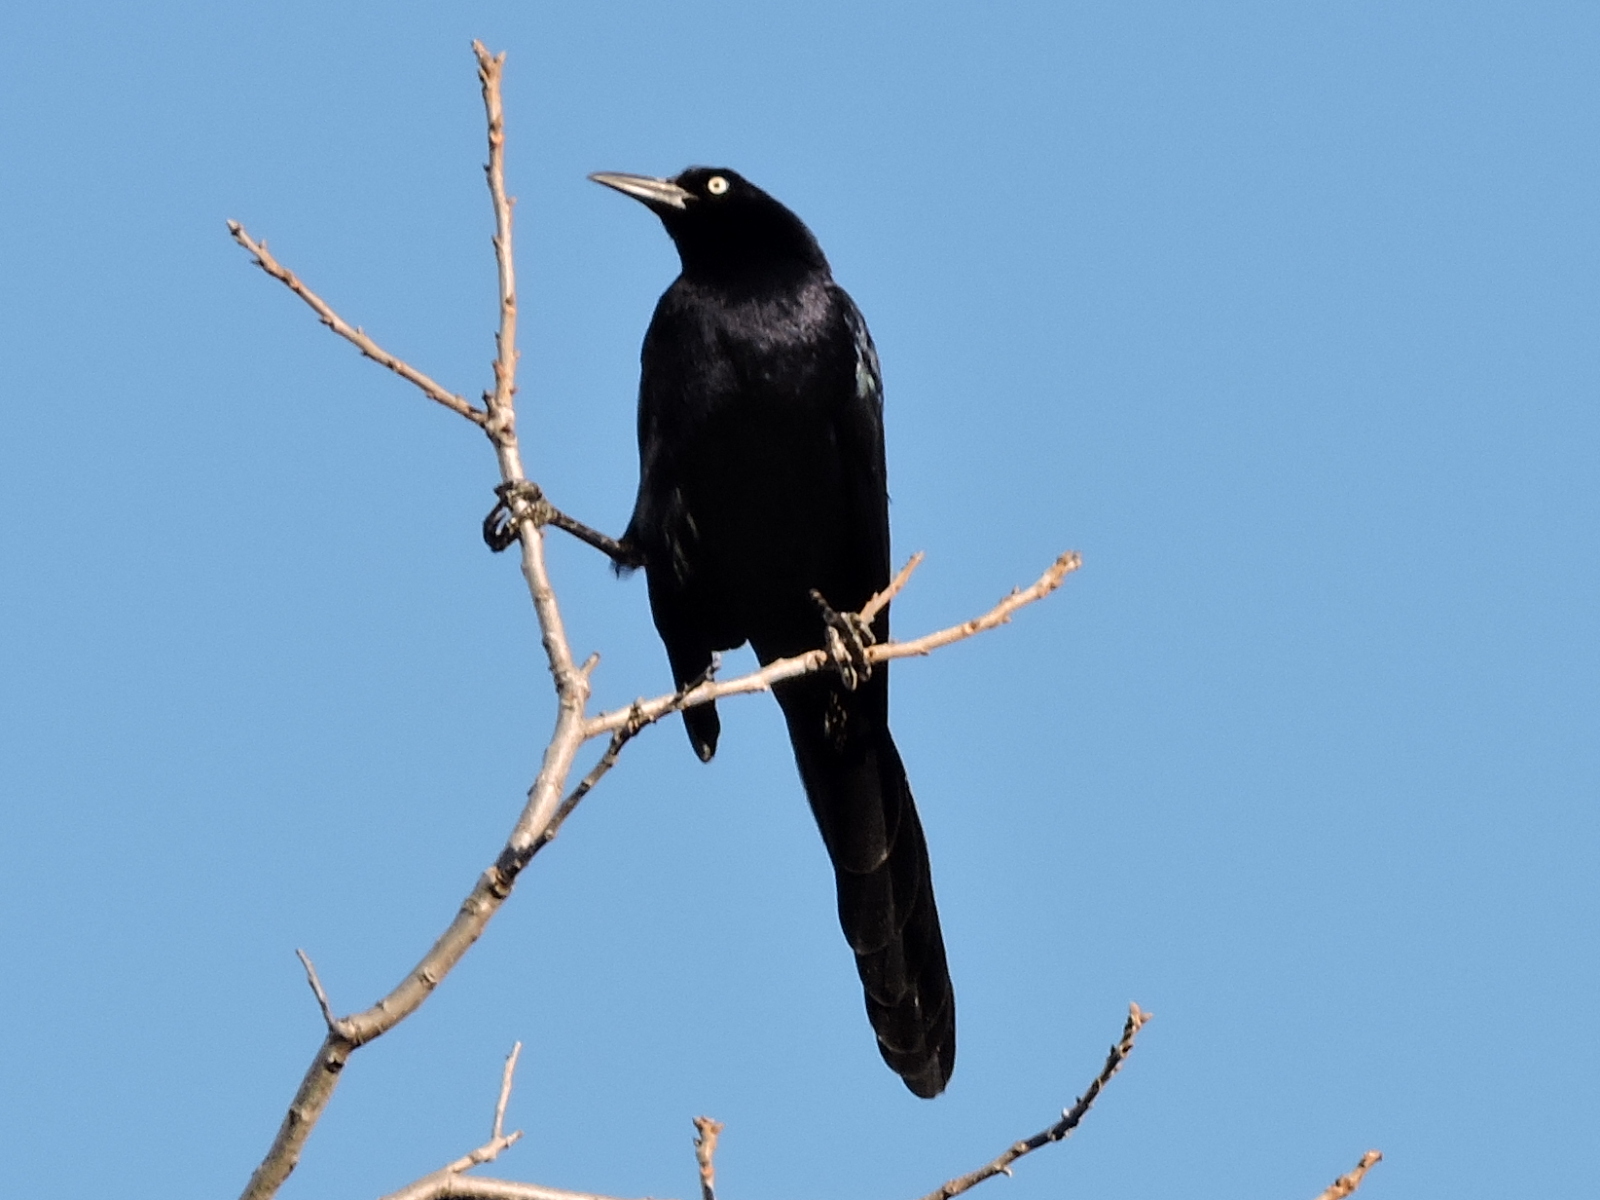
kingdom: Animalia
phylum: Chordata
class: Aves
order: Passeriformes
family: Icteridae
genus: Quiscalus
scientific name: Quiscalus mexicanus
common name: Great-tailed grackle
